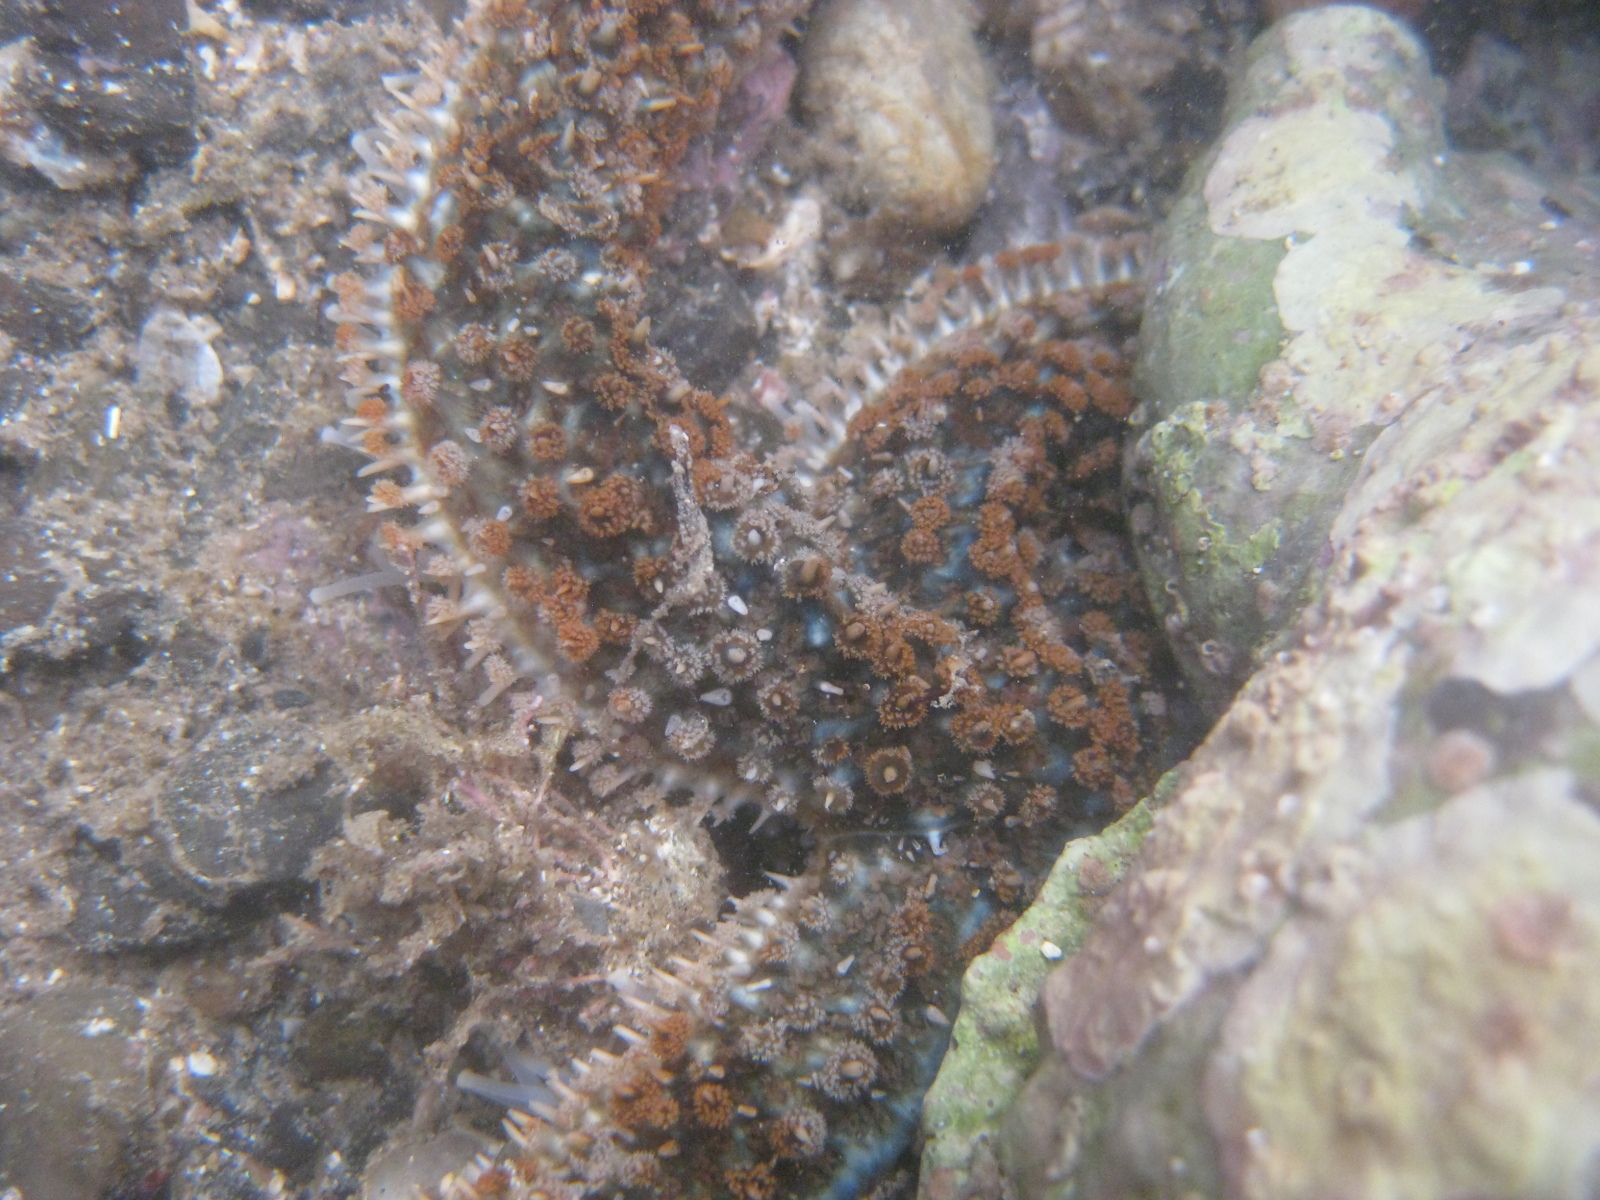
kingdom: Animalia
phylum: Echinodermata
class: Asteroidea
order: Forcipulatida
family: Asteriidae
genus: Coscinasterias
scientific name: Coscinasterias muricata
